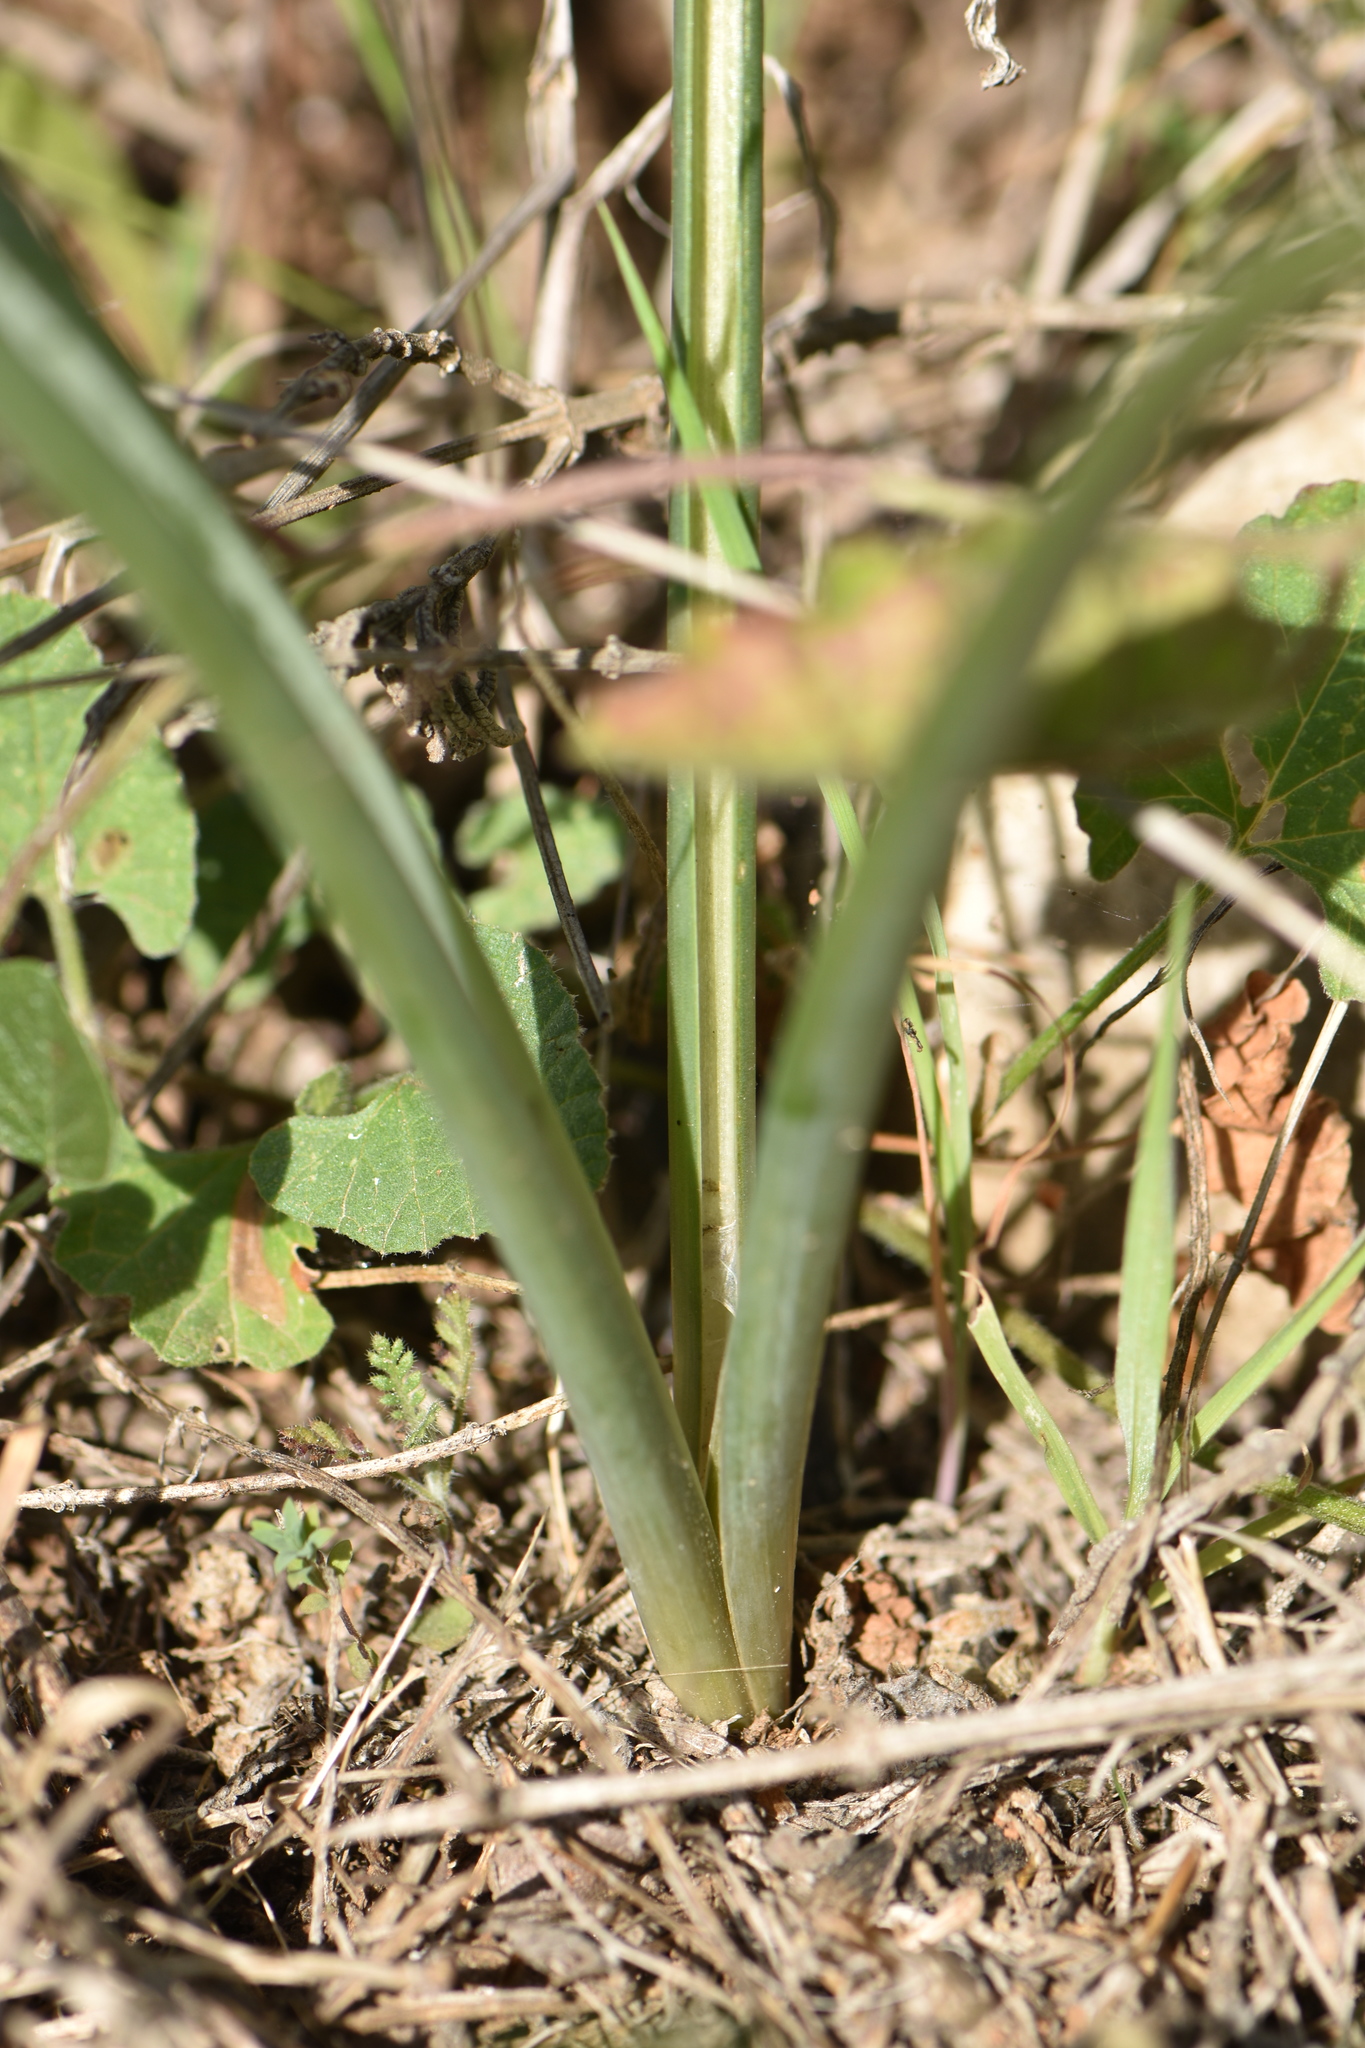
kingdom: Plantae
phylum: Tracheophyta
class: Liliopsida
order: Asparagales
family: Asparagaceae
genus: Dipcadi
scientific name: Dipcadi serotinum
